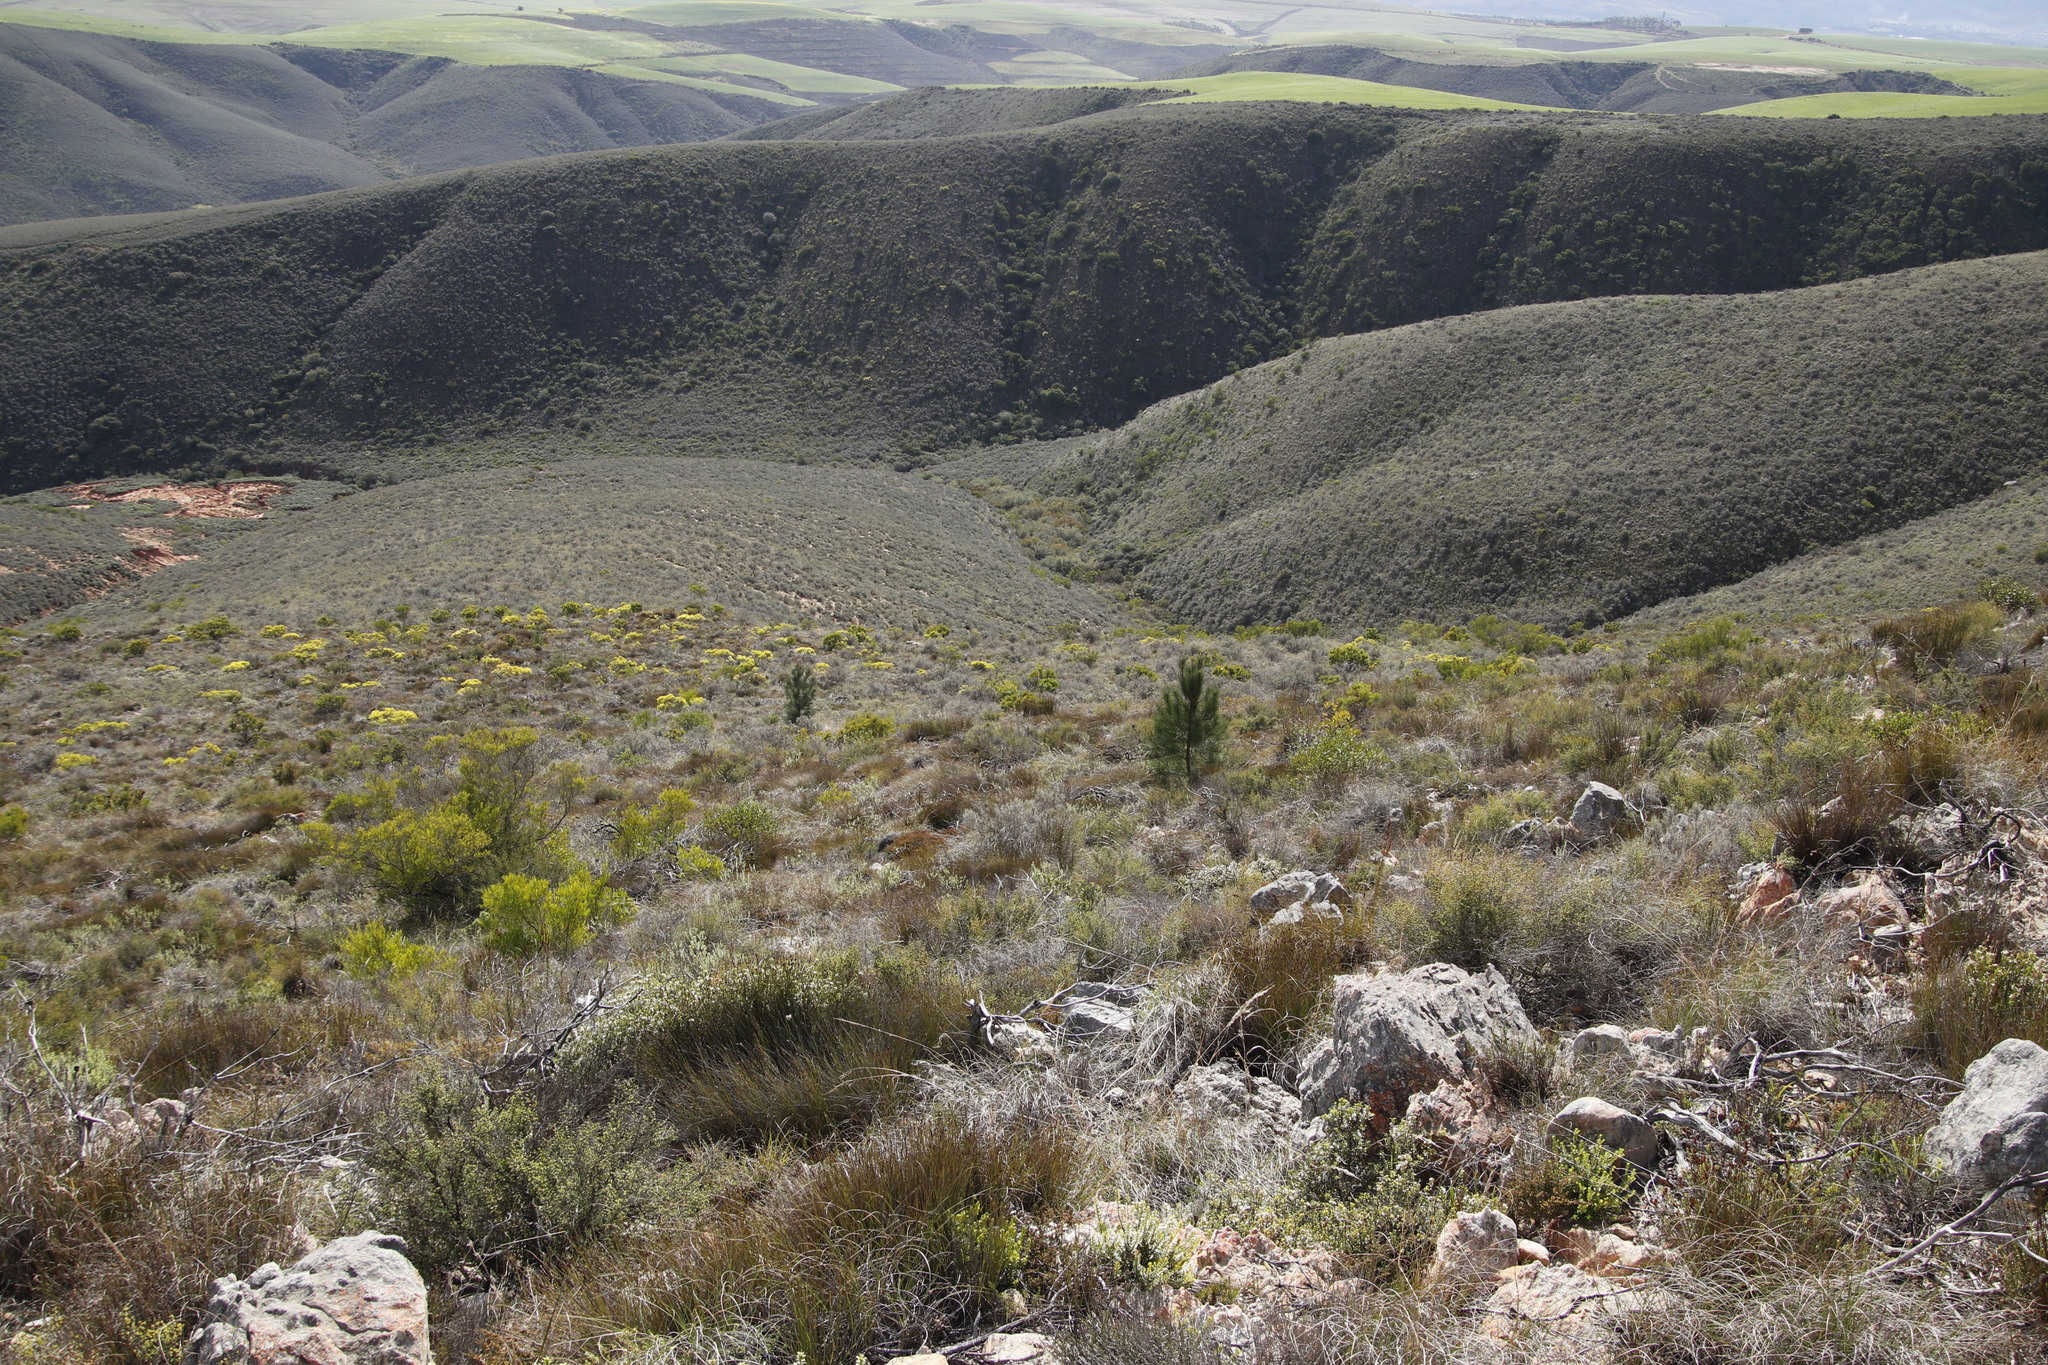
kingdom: Plantae
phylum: Tracheophyta
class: Pinopsida
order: Pinales
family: Pinaceae
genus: Pinus
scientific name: Pinus pinaster
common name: Maritime pine
